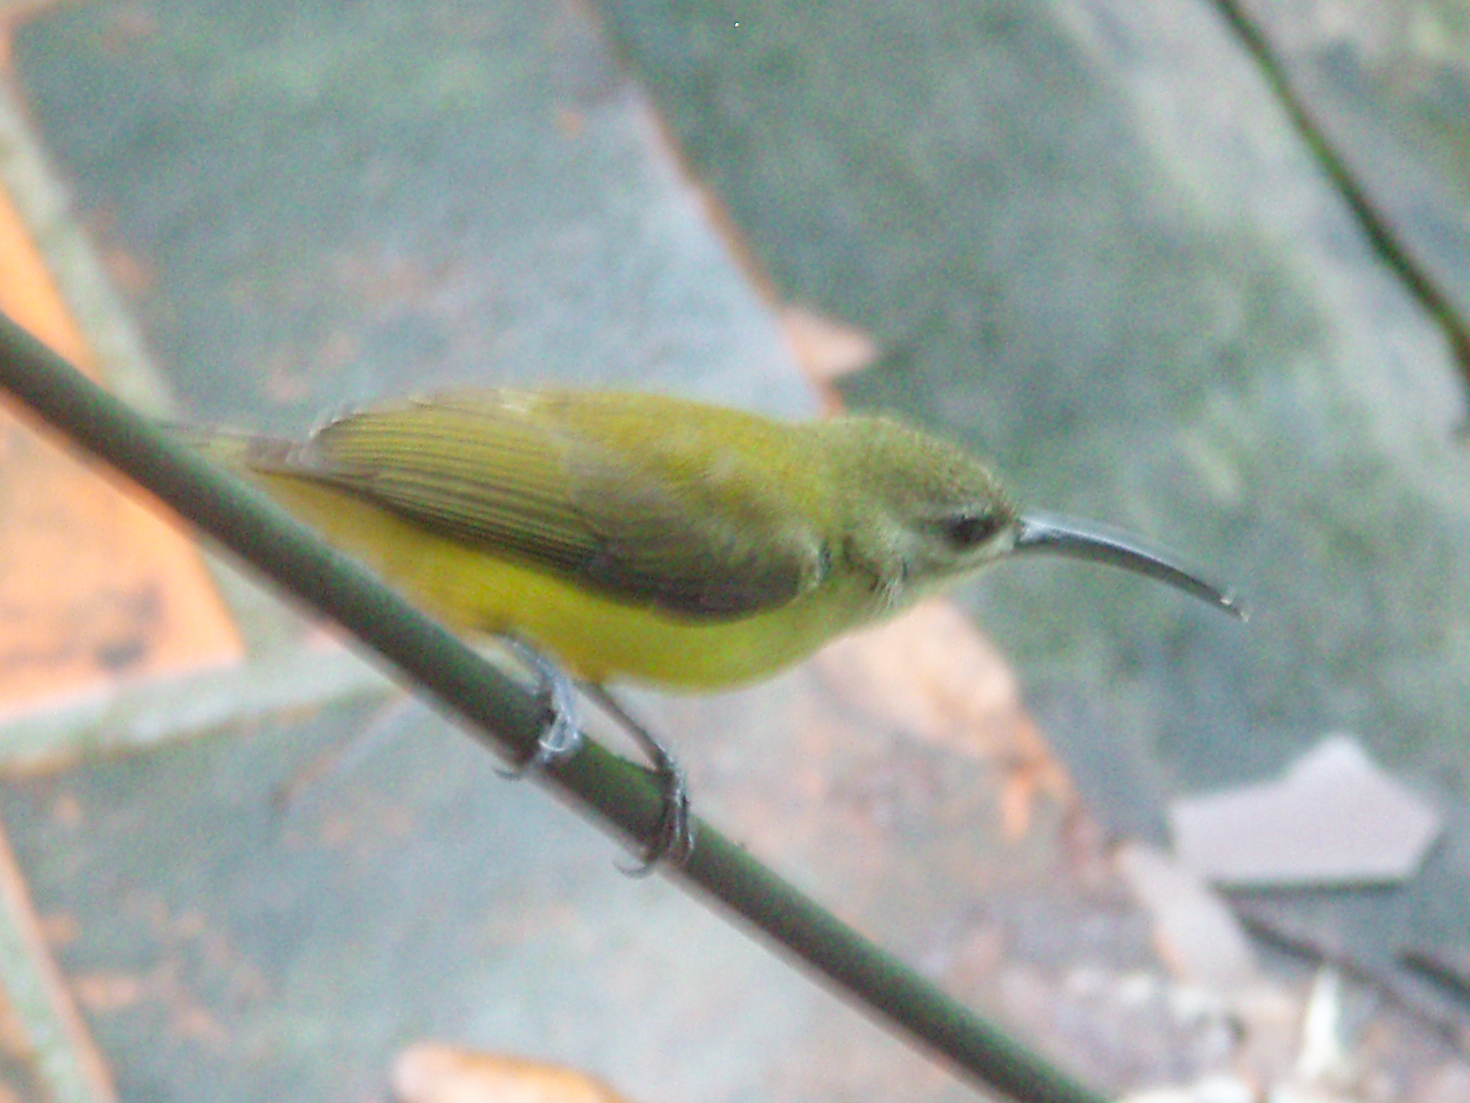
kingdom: Animalia
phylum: Chordata
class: Aves
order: Passeriformes
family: Nectariniidae
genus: Arachnothera
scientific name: Arachnothera longirostra
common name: Little spiderhunter
